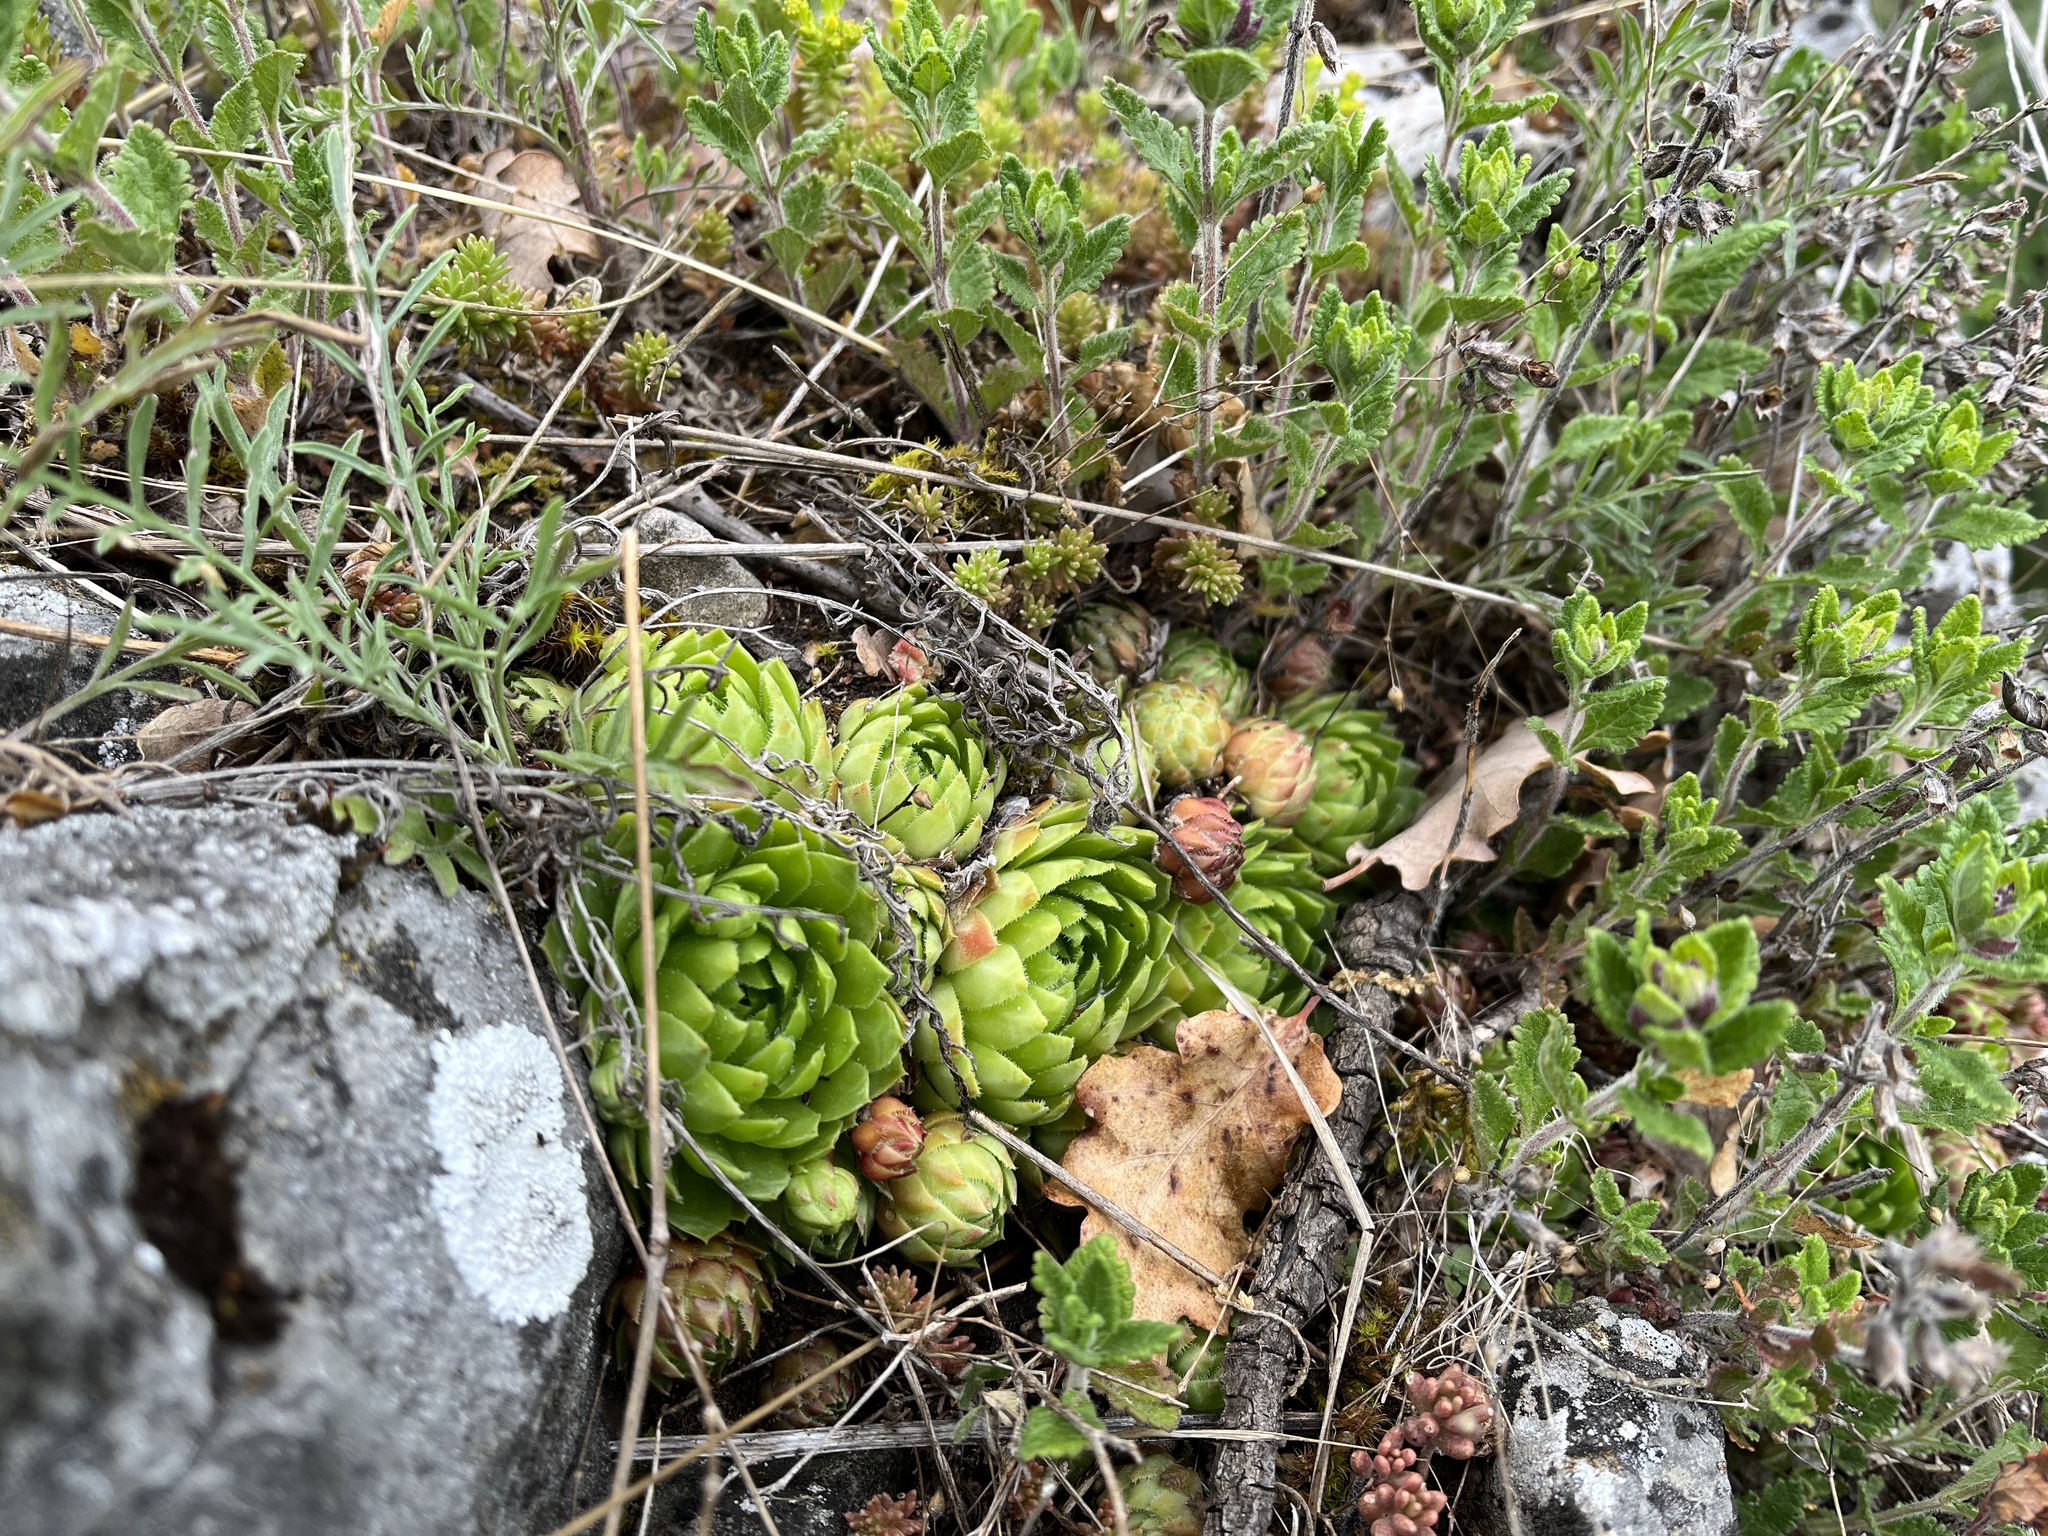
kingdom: Plantae
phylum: Tracheophyta
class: Magnoliopsida
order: Saxifragales
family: Crassulaceae
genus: Sempervivum
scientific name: Sempervivum globiferum
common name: Rolling hen-and-chicks
